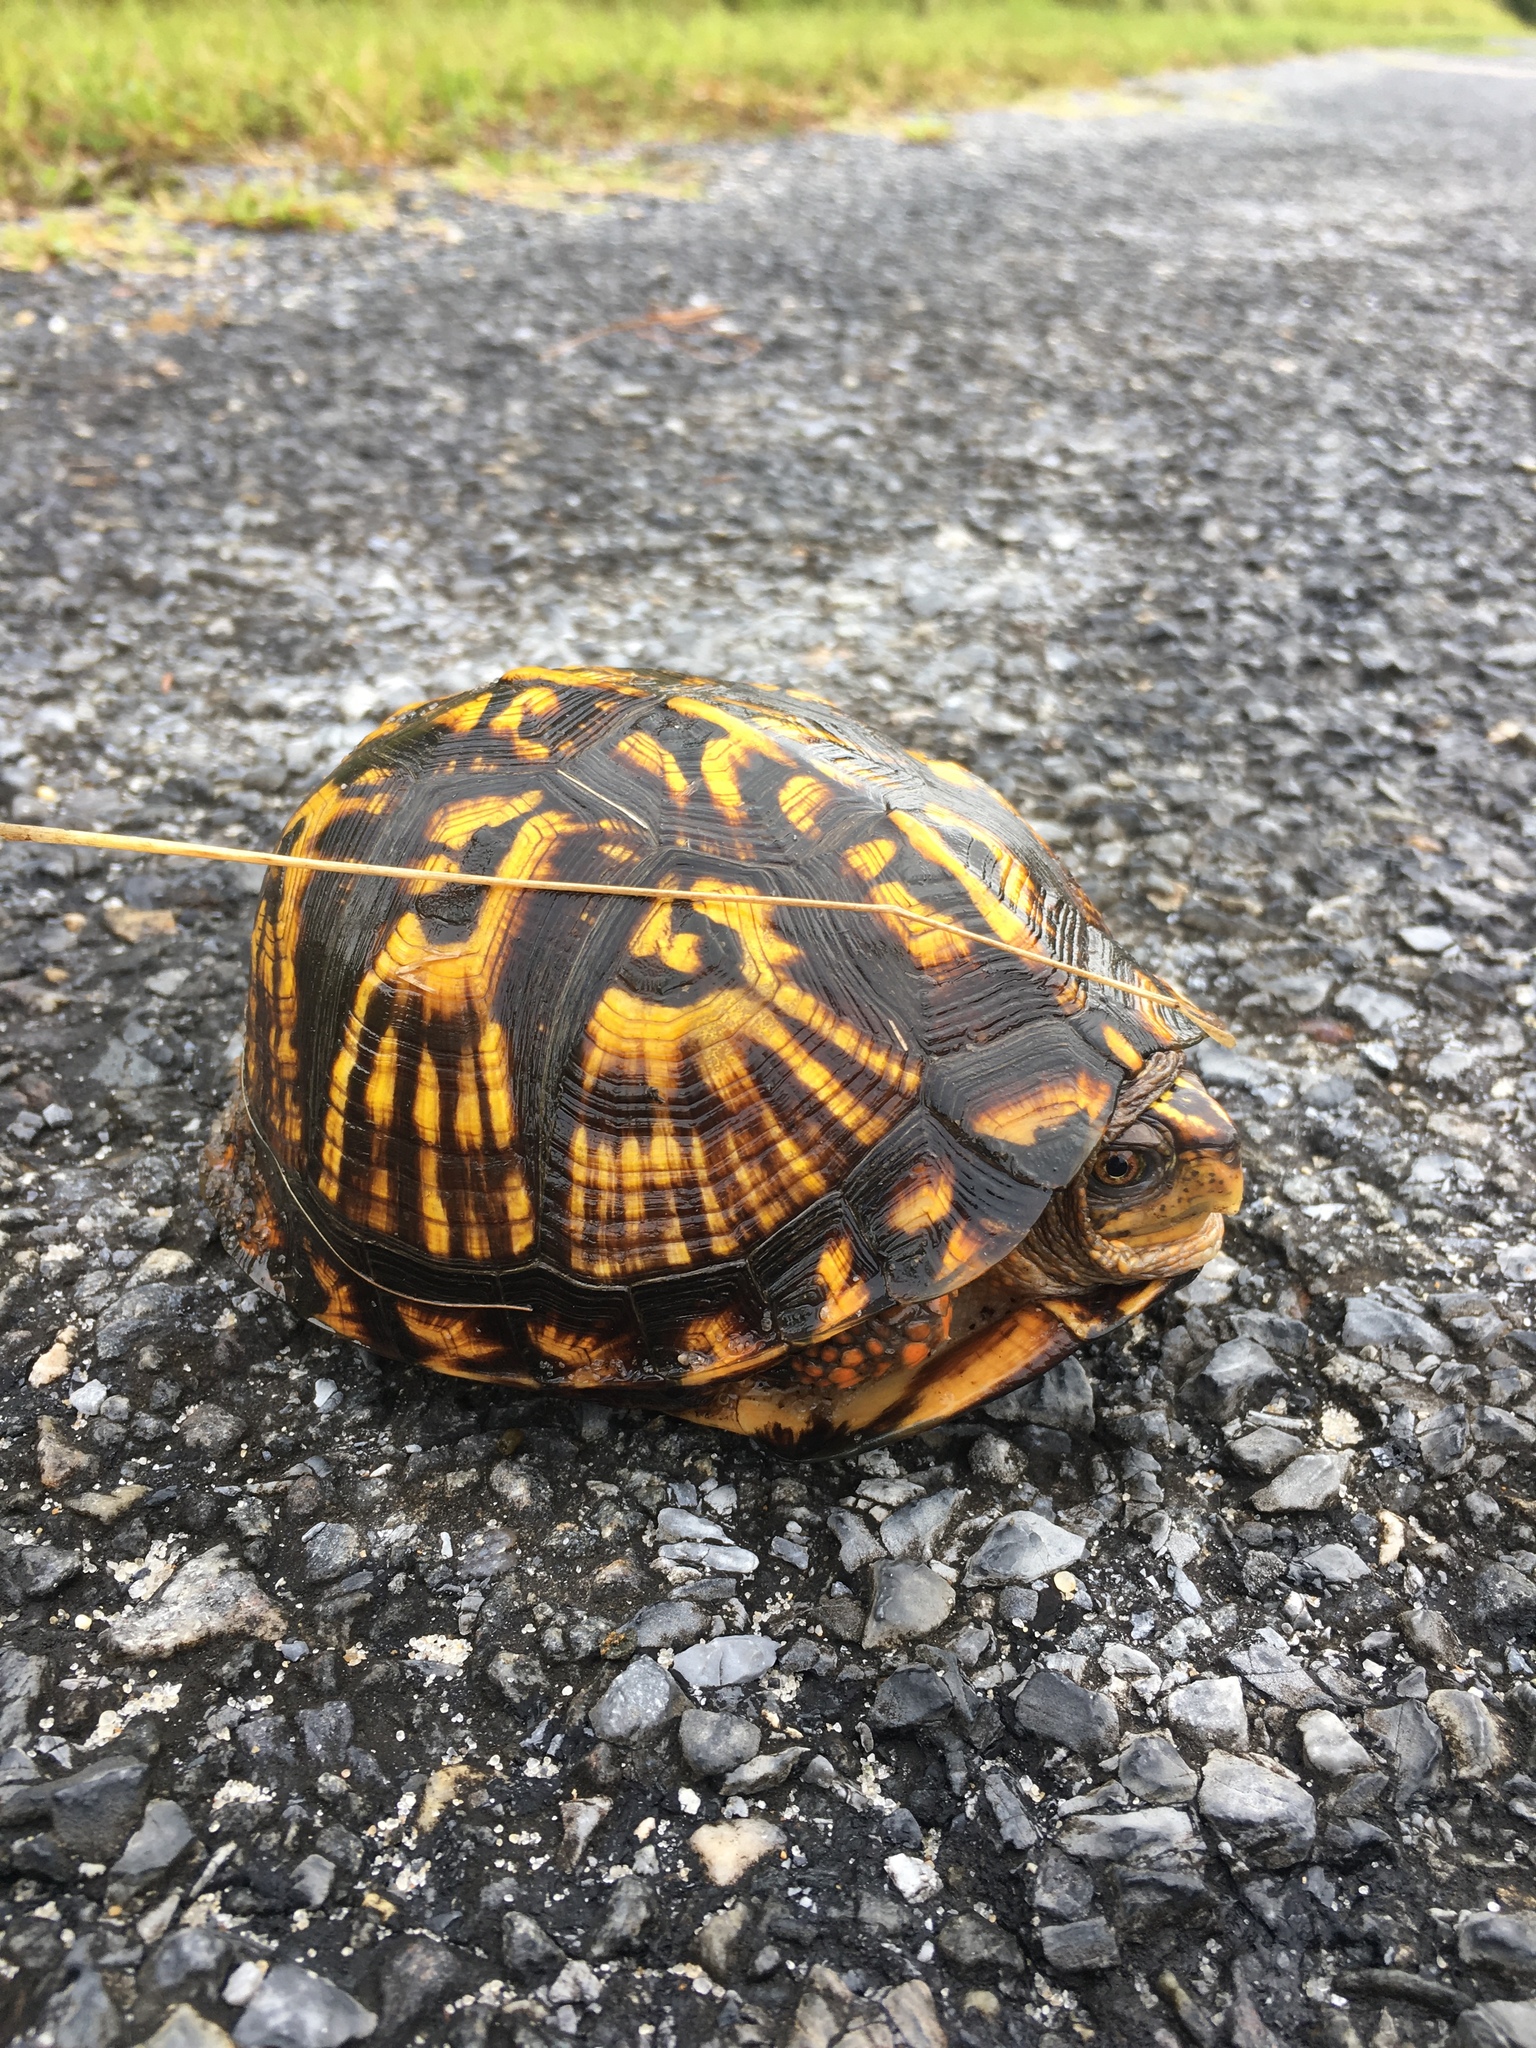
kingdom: Animalia
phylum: Chordata
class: Testudines
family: Emydidae
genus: Terrapene
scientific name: Terrapene carolina
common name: Common box turtle
